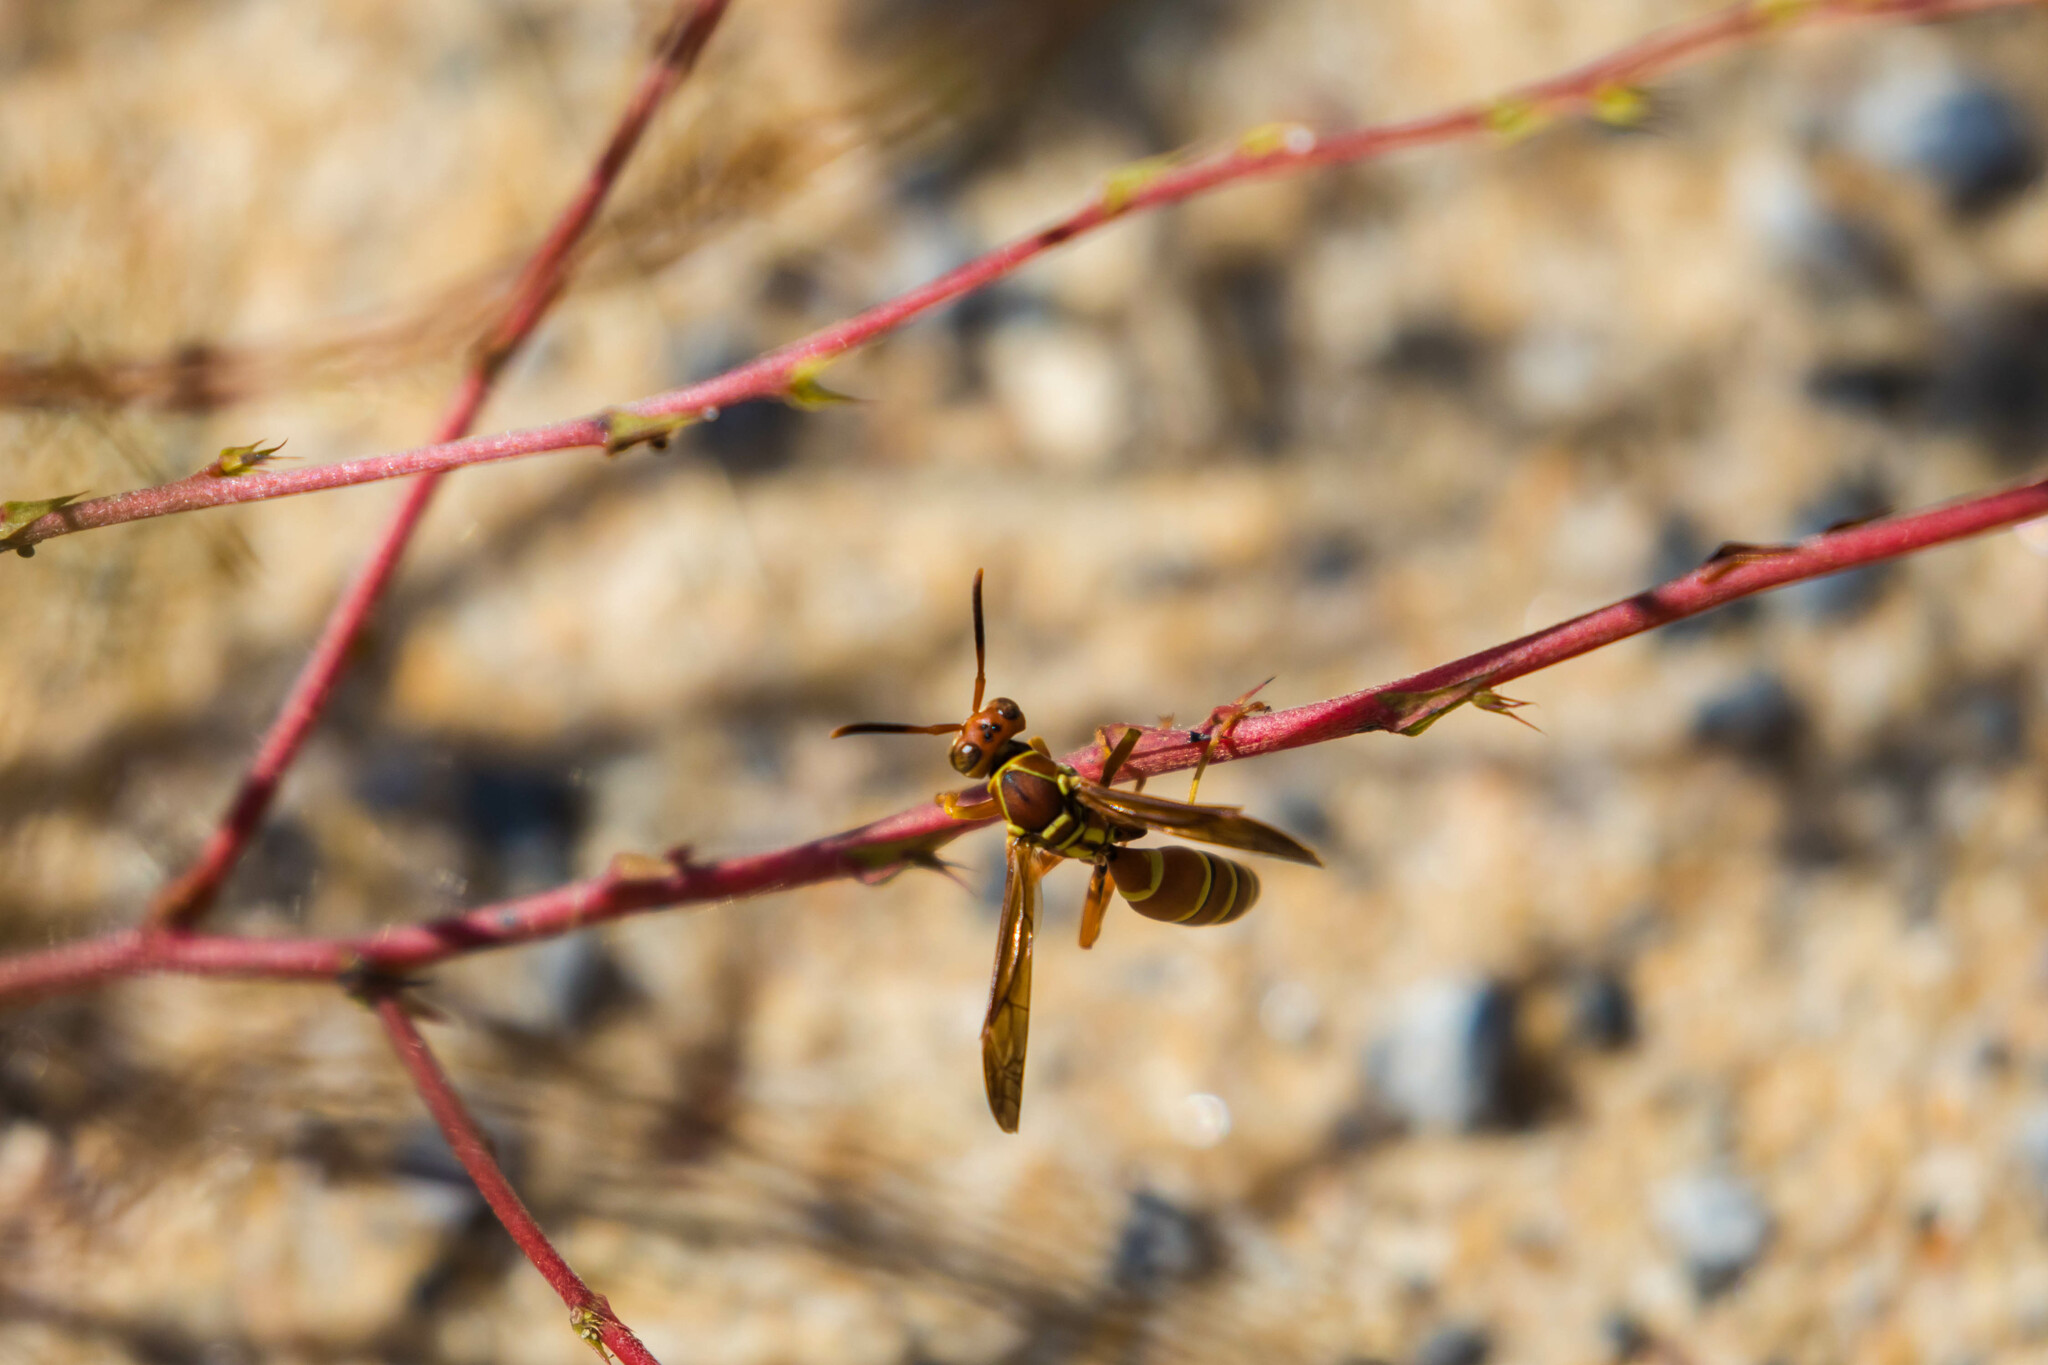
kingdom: Animalia
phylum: Arthropoda
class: Insecta
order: Hymenoptera
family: Eumenidae
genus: Polistes
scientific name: Polistes dorsalis
